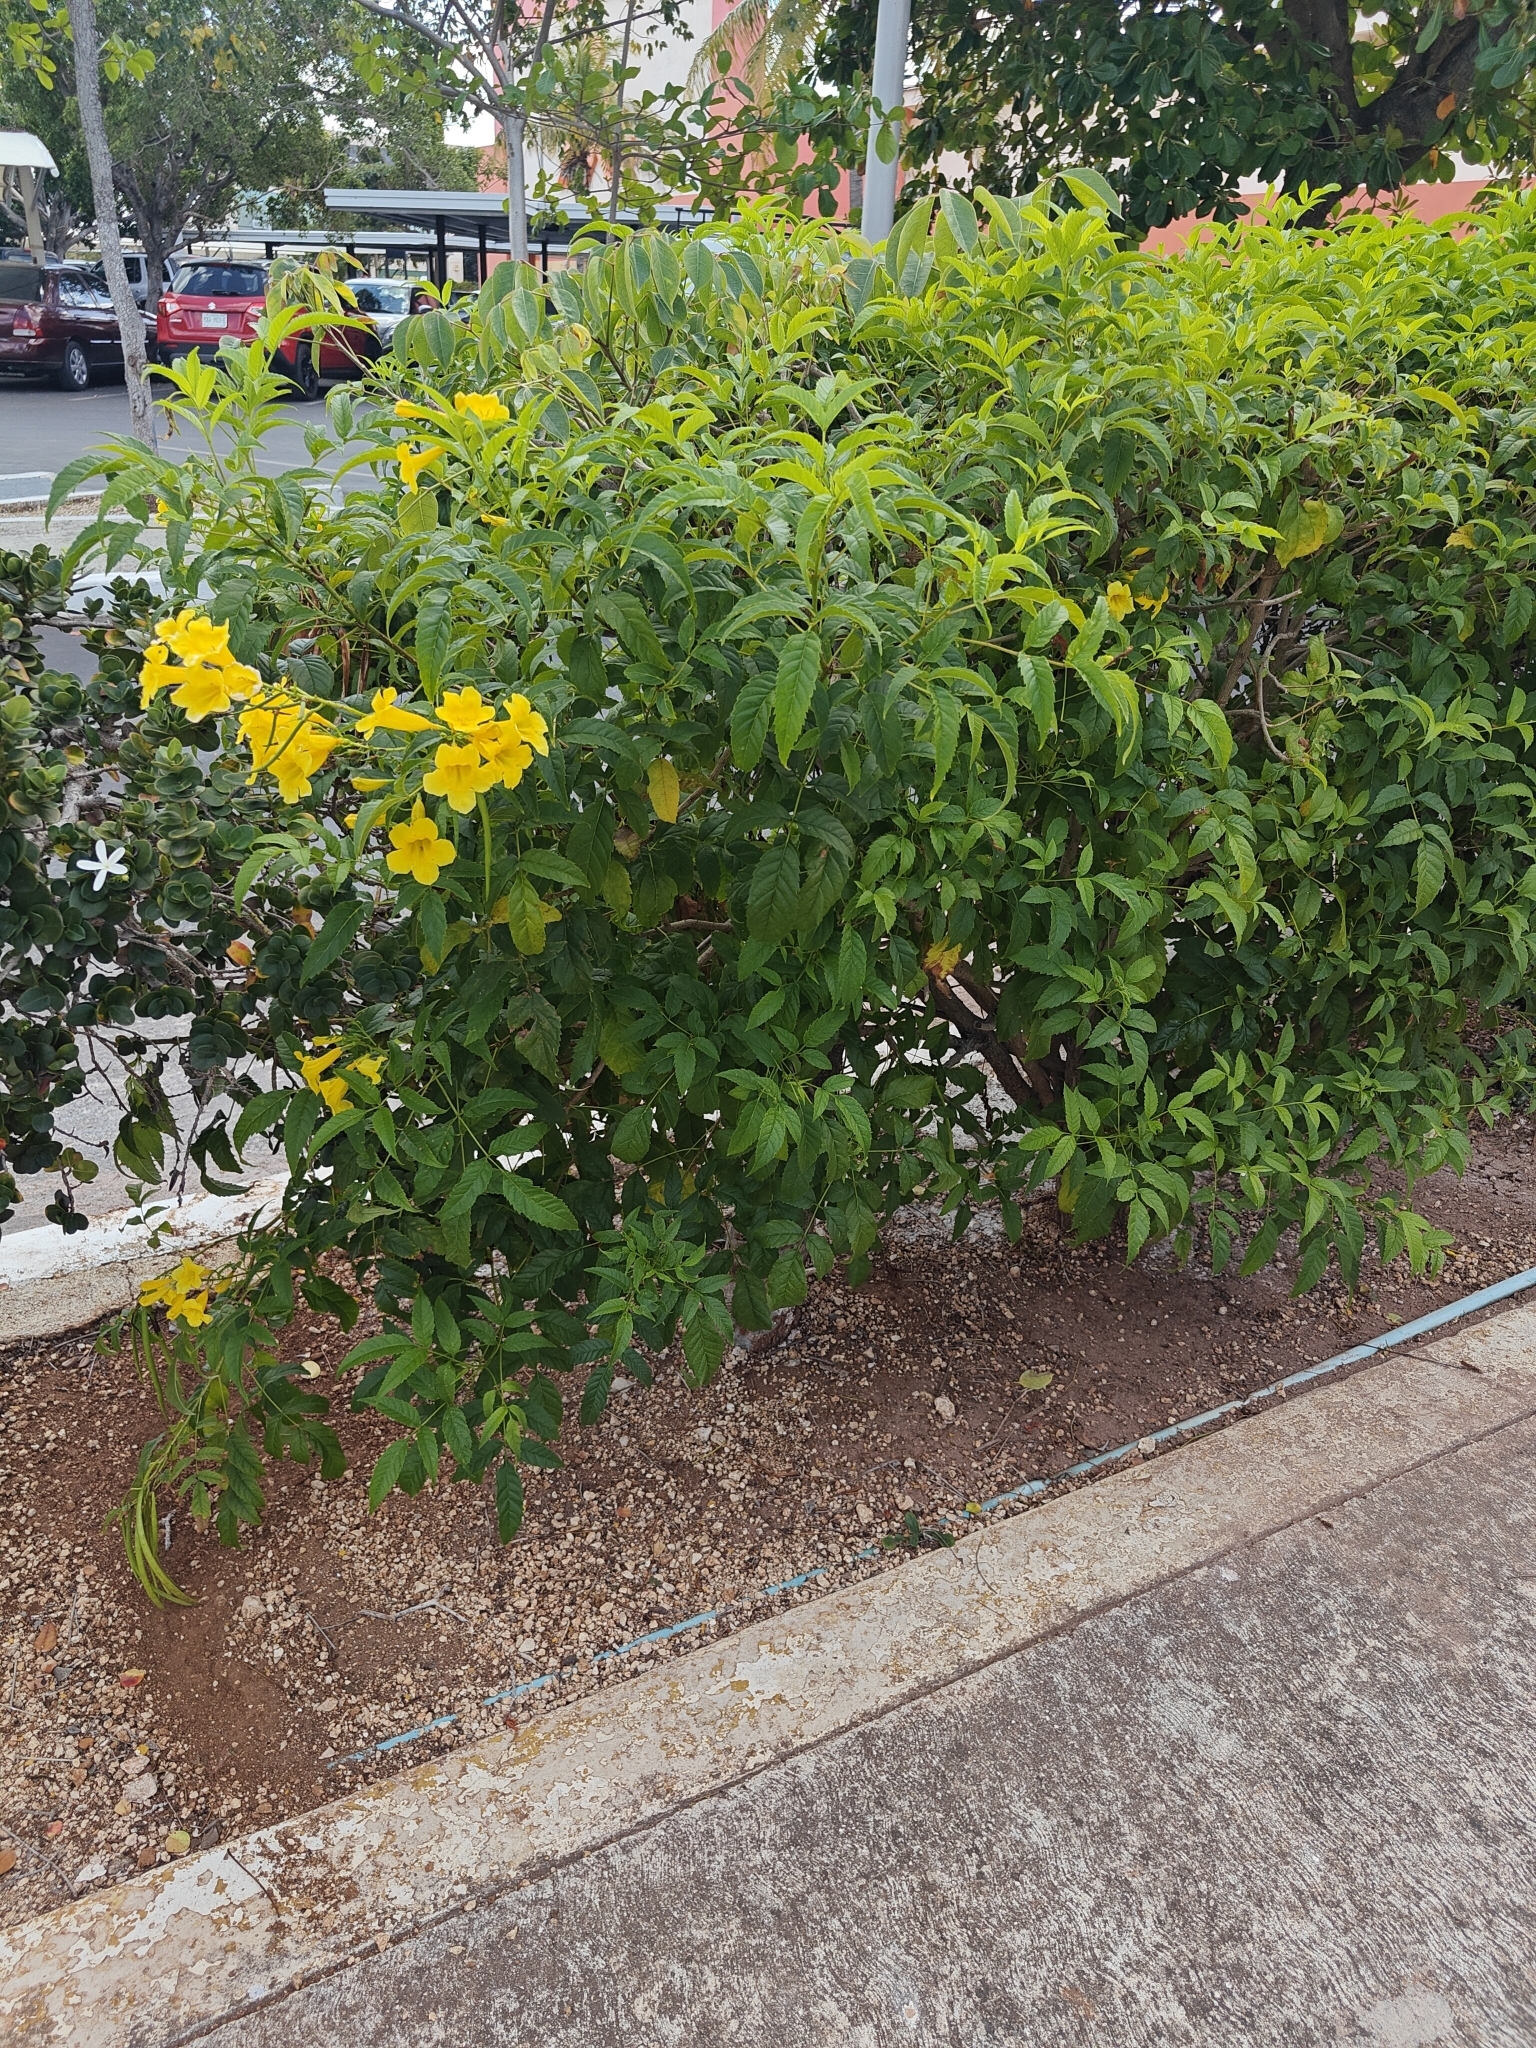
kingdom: Plantae
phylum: Tracheophyta
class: Magnoliopsida
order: Lamiales
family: Bignoniaceae
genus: Tecoma
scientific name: Tecoma stans
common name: Yellow trumpetbush
